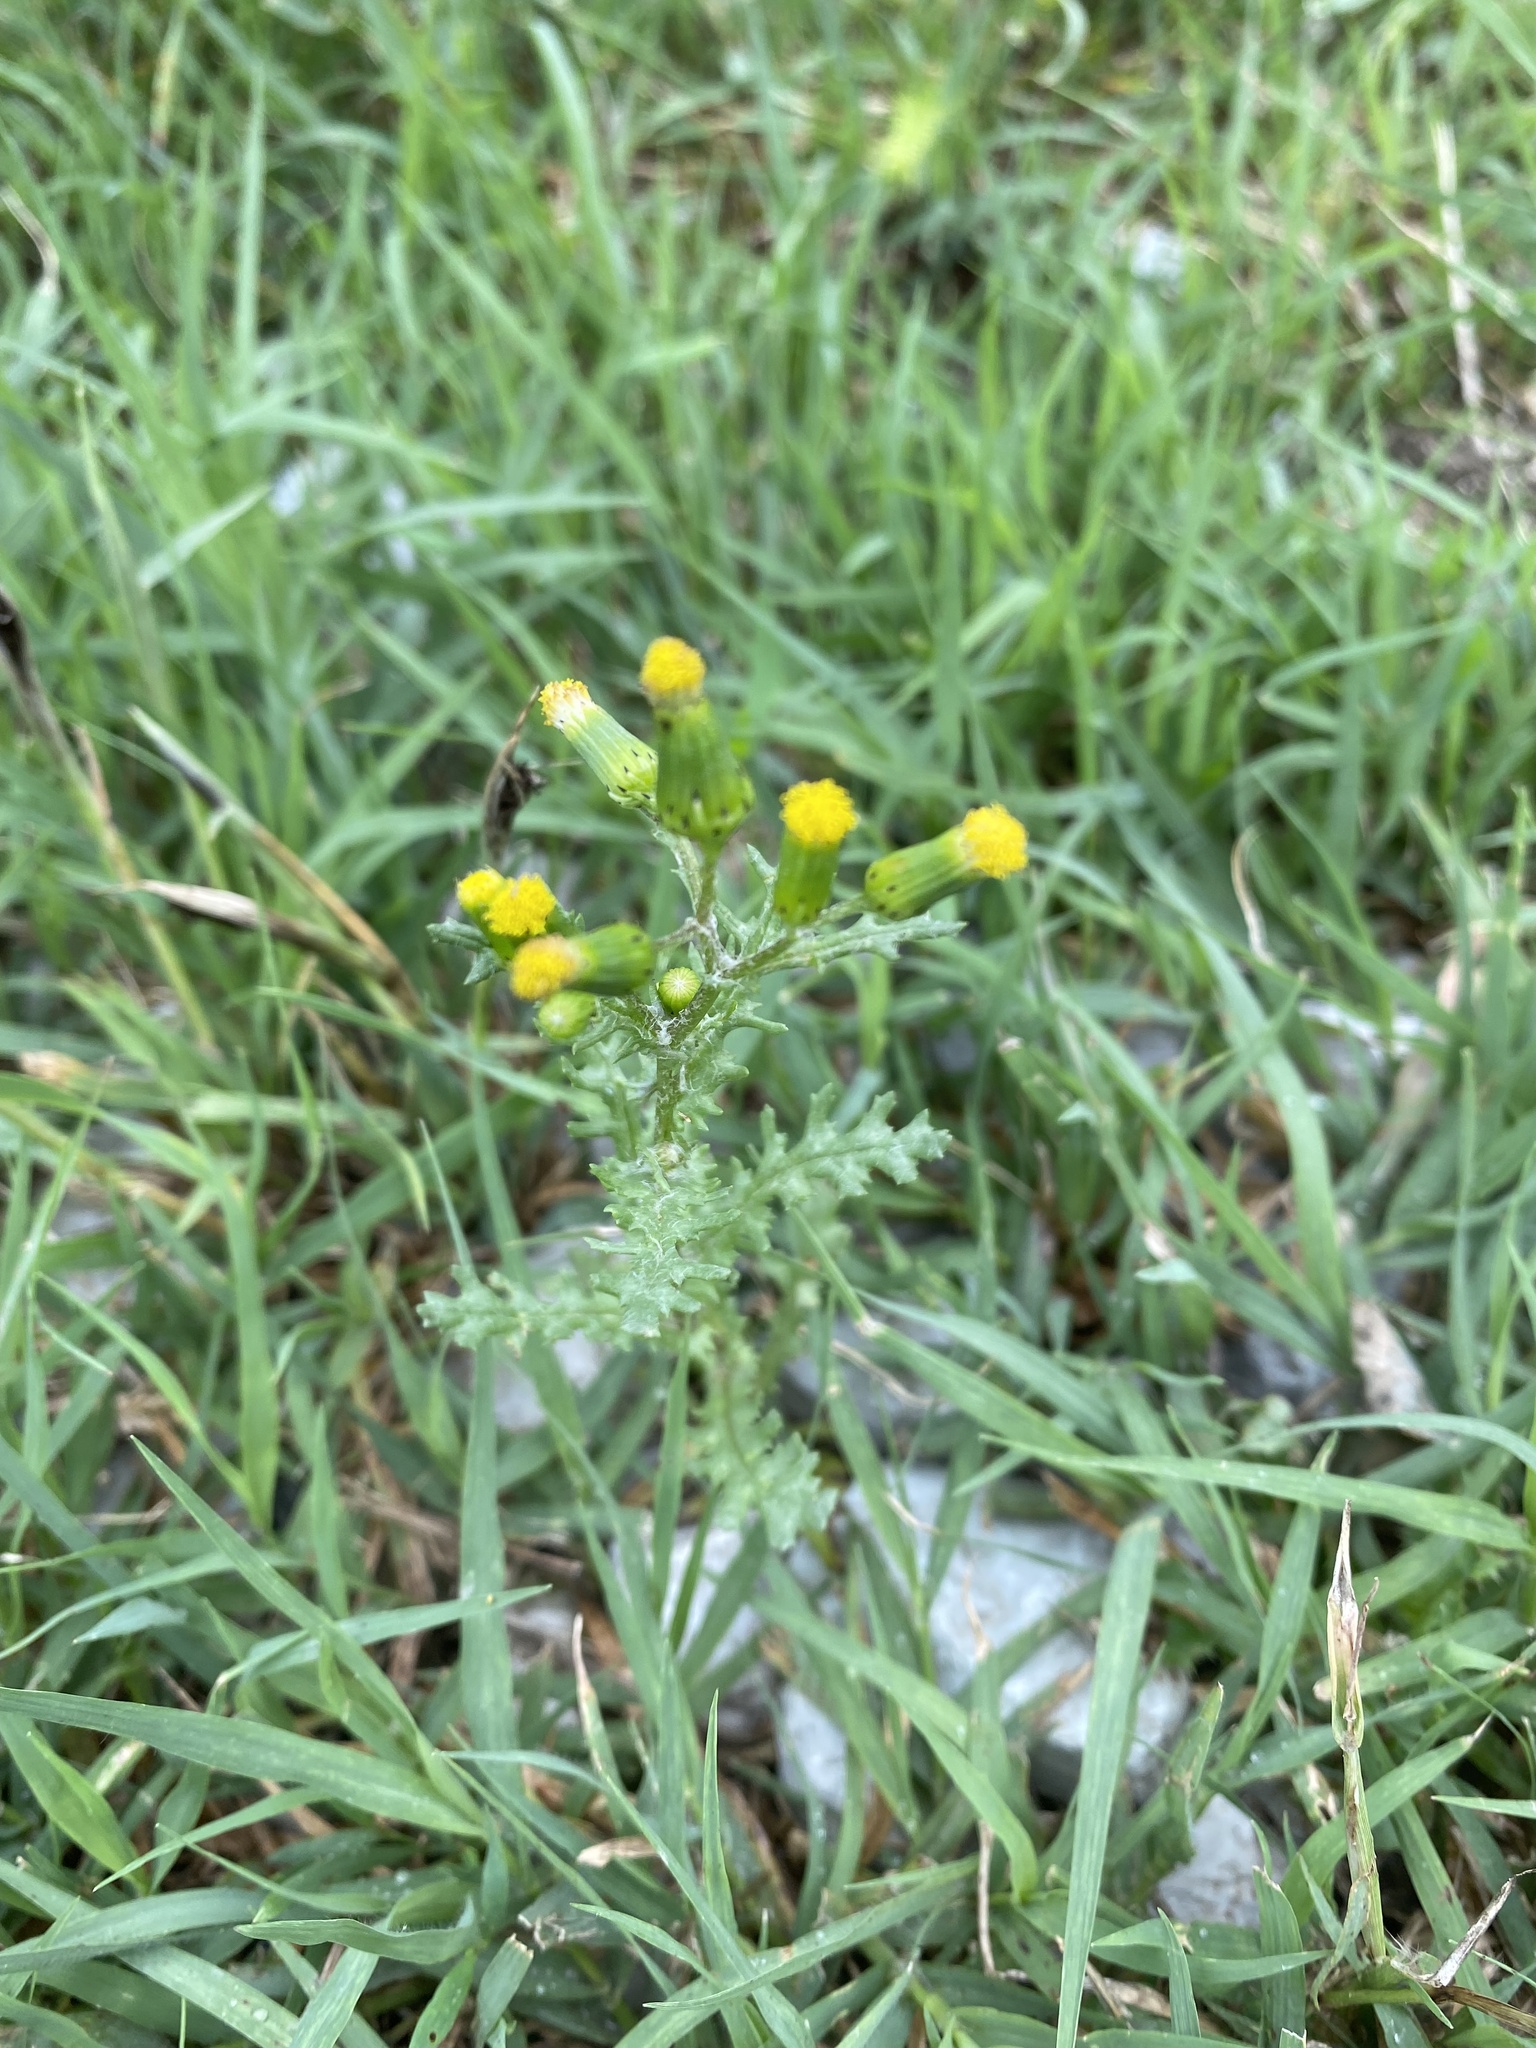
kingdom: Plantae
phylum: Tracheophyta
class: Magnoliopsida
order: Asterales
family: Asteraceae
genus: Senecio
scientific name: Senecio vulgaris
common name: Old-man-in-the-spring
